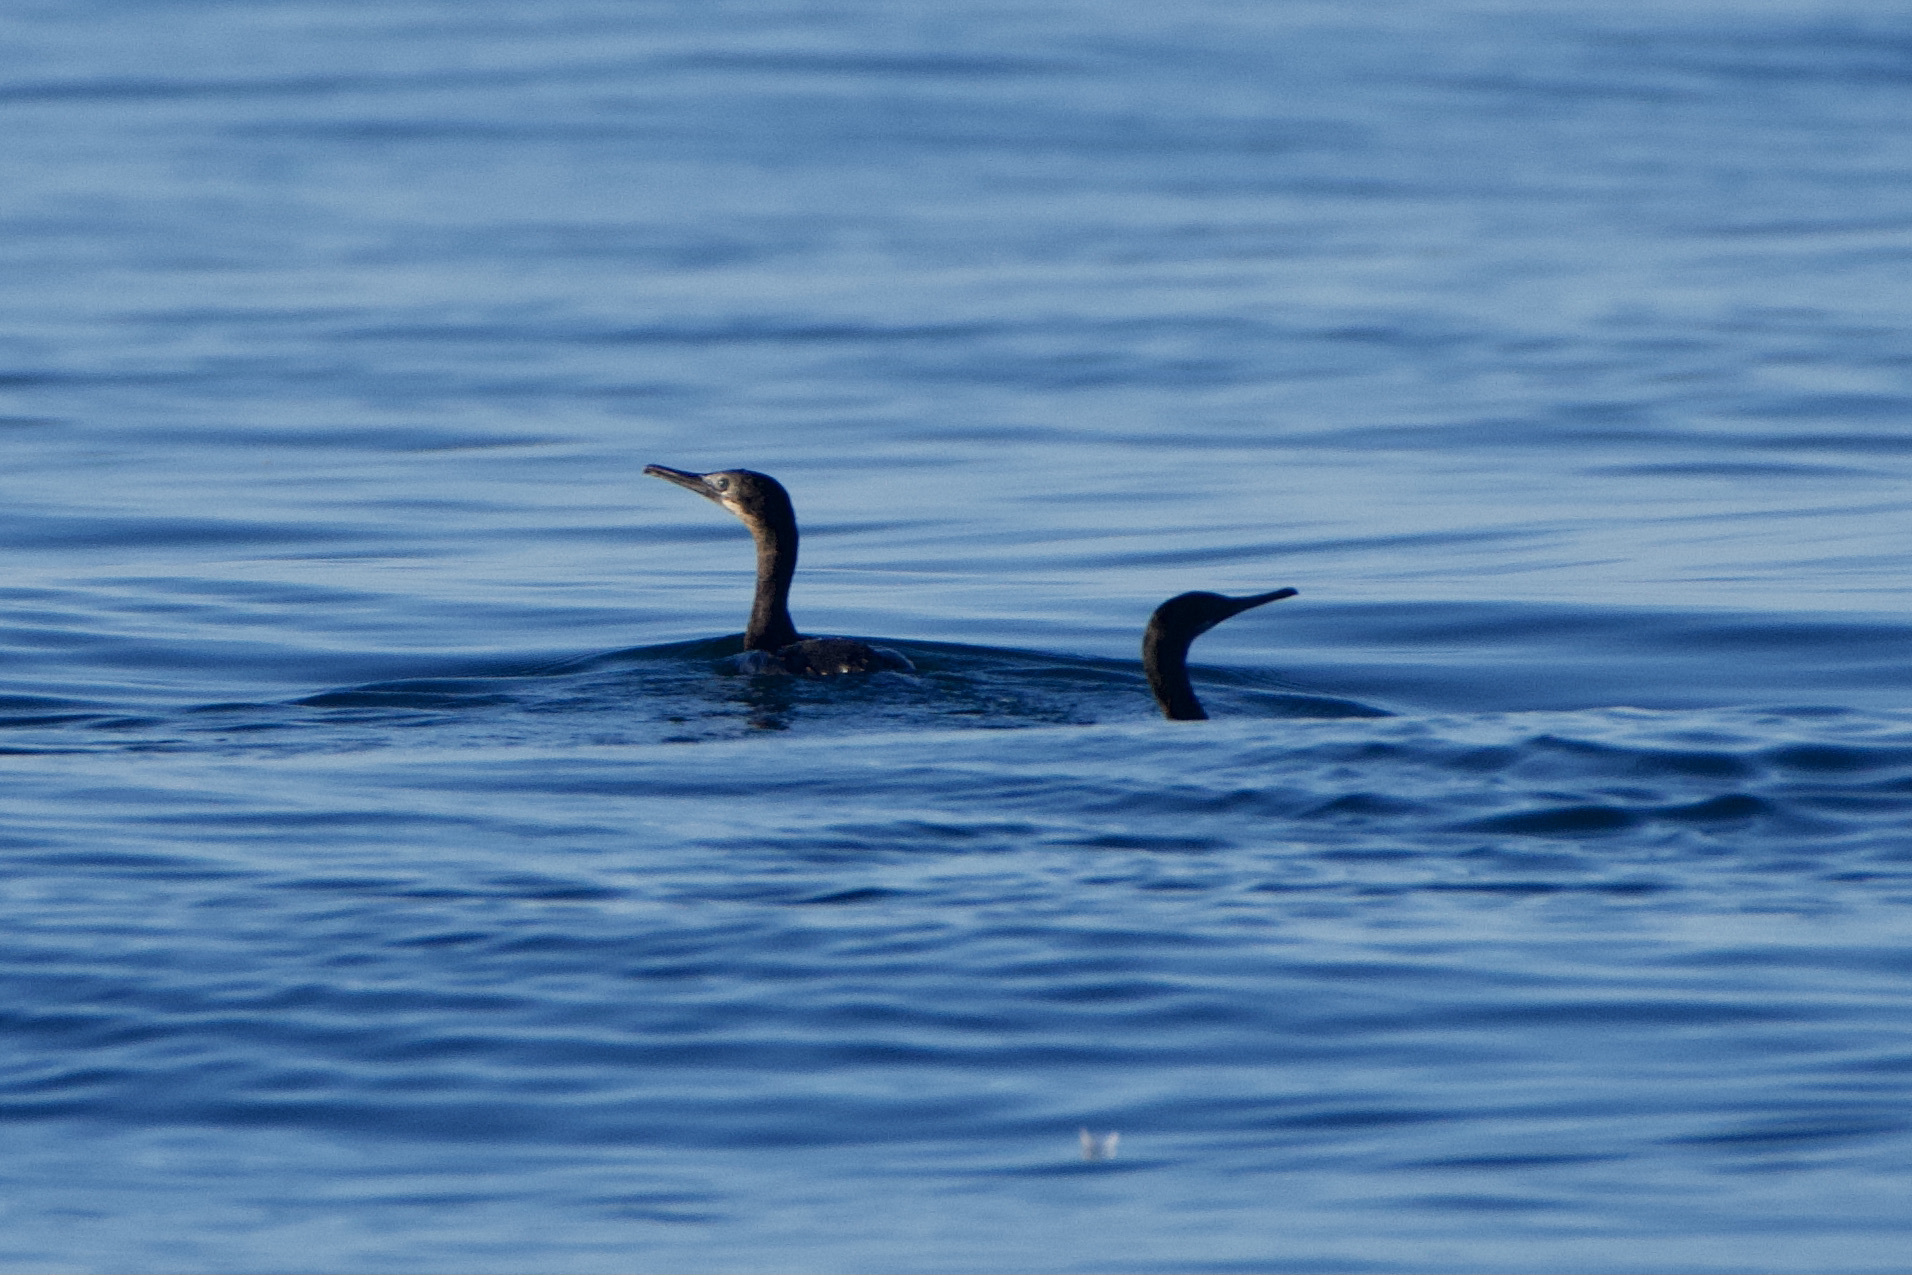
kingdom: Animalia
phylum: Chordata
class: Aves
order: Suliformes
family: Phalacrocoracidae
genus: Urile
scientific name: Urile penicillatus
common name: Brandt's cormorant
